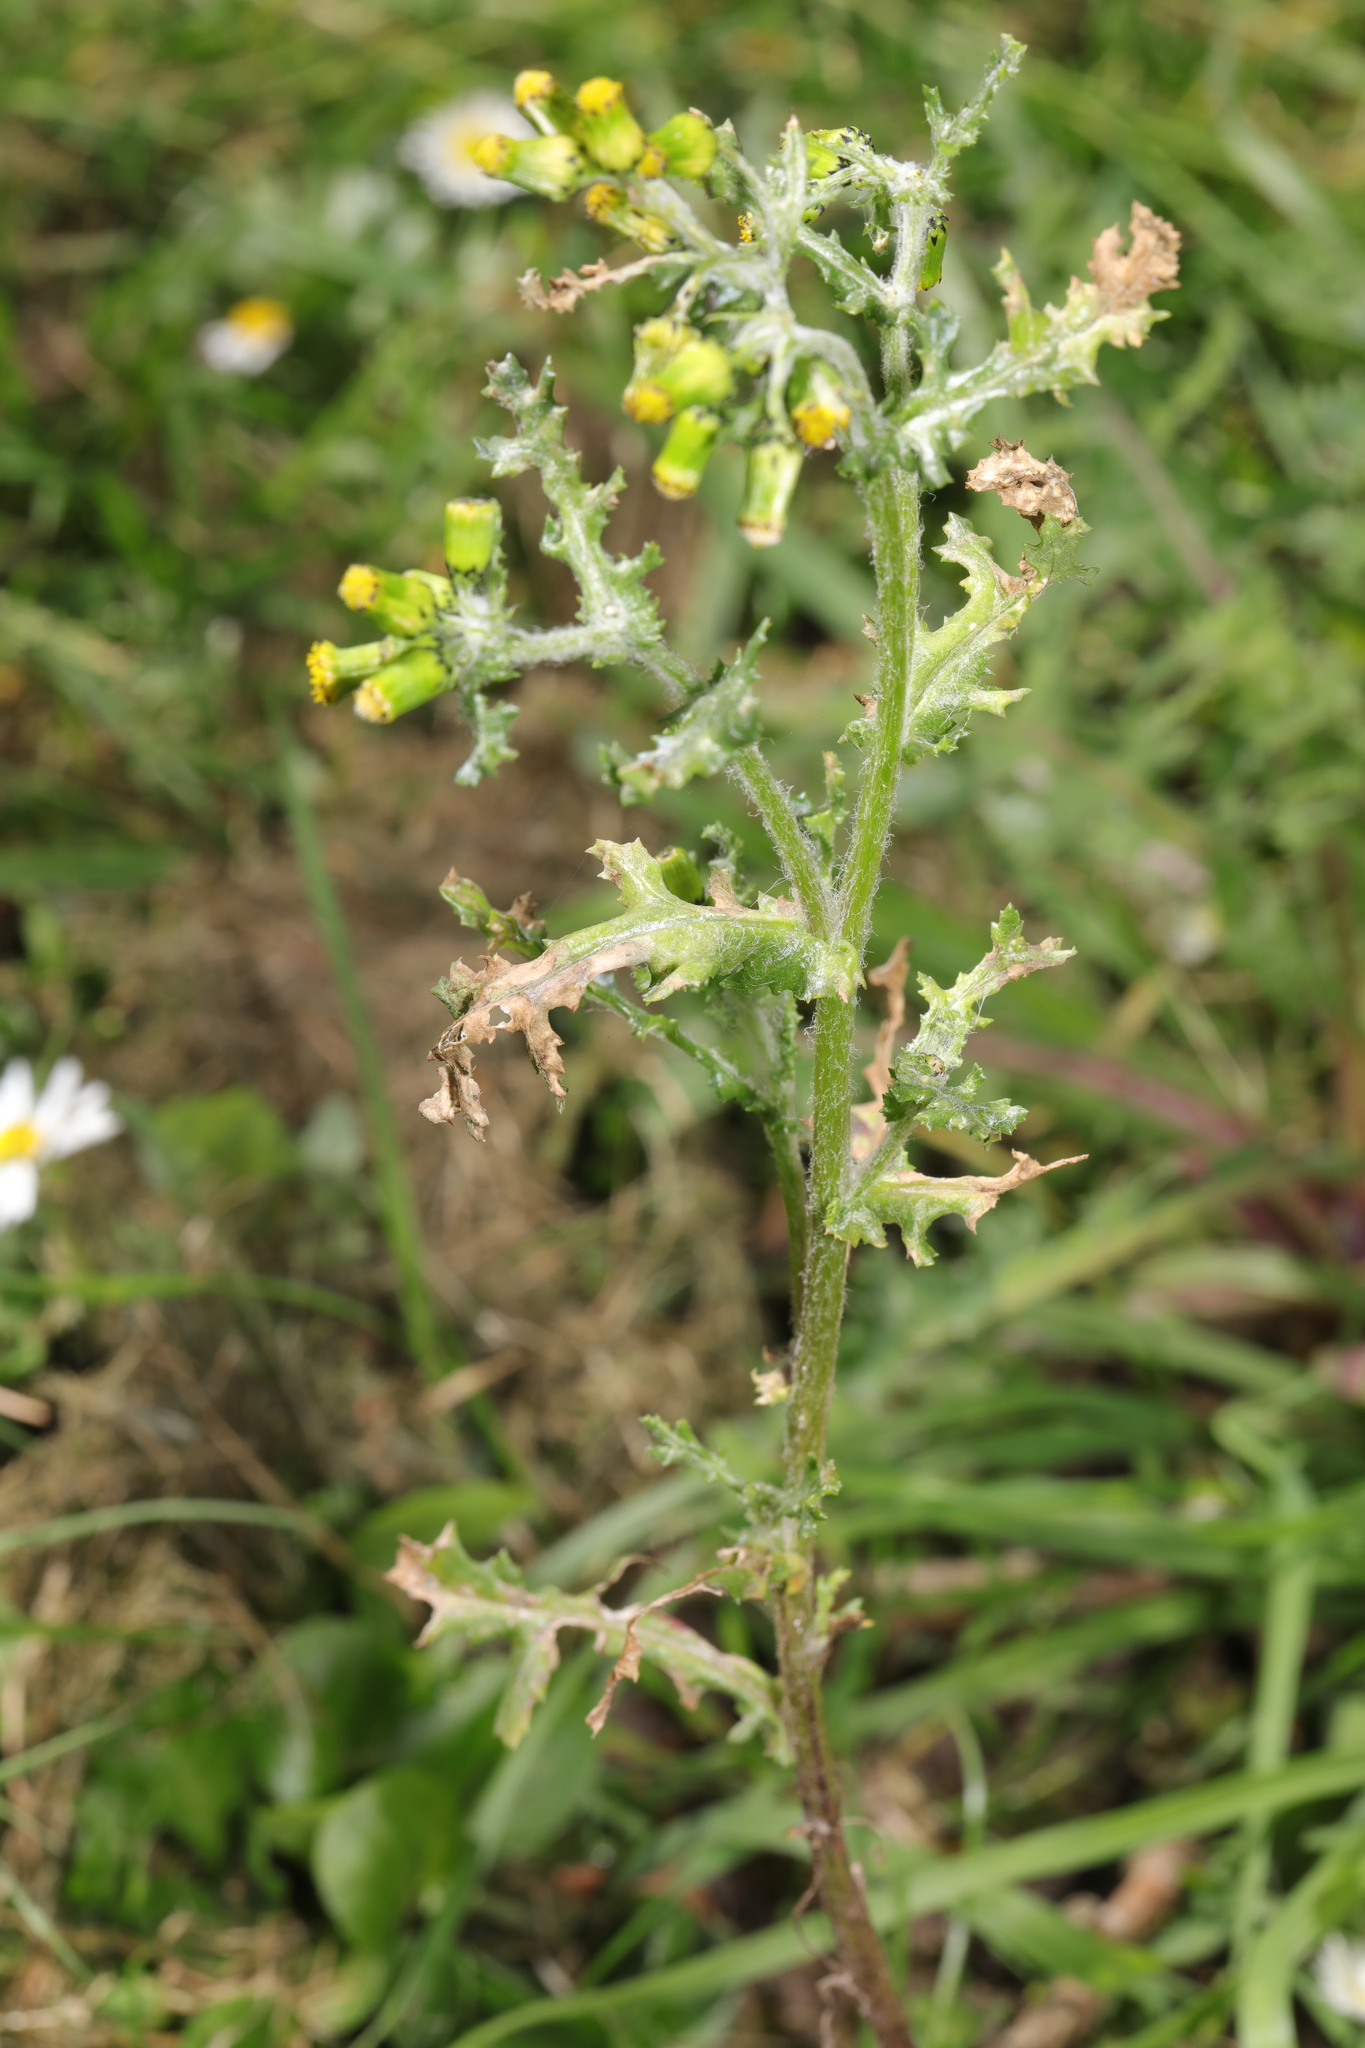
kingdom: Plantae
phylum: Tracheophyta
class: Magnoliopsida
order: Asterales
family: Asteraceae
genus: Senecio
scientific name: Senecio vulgaris
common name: Old-man-in-the-spring
